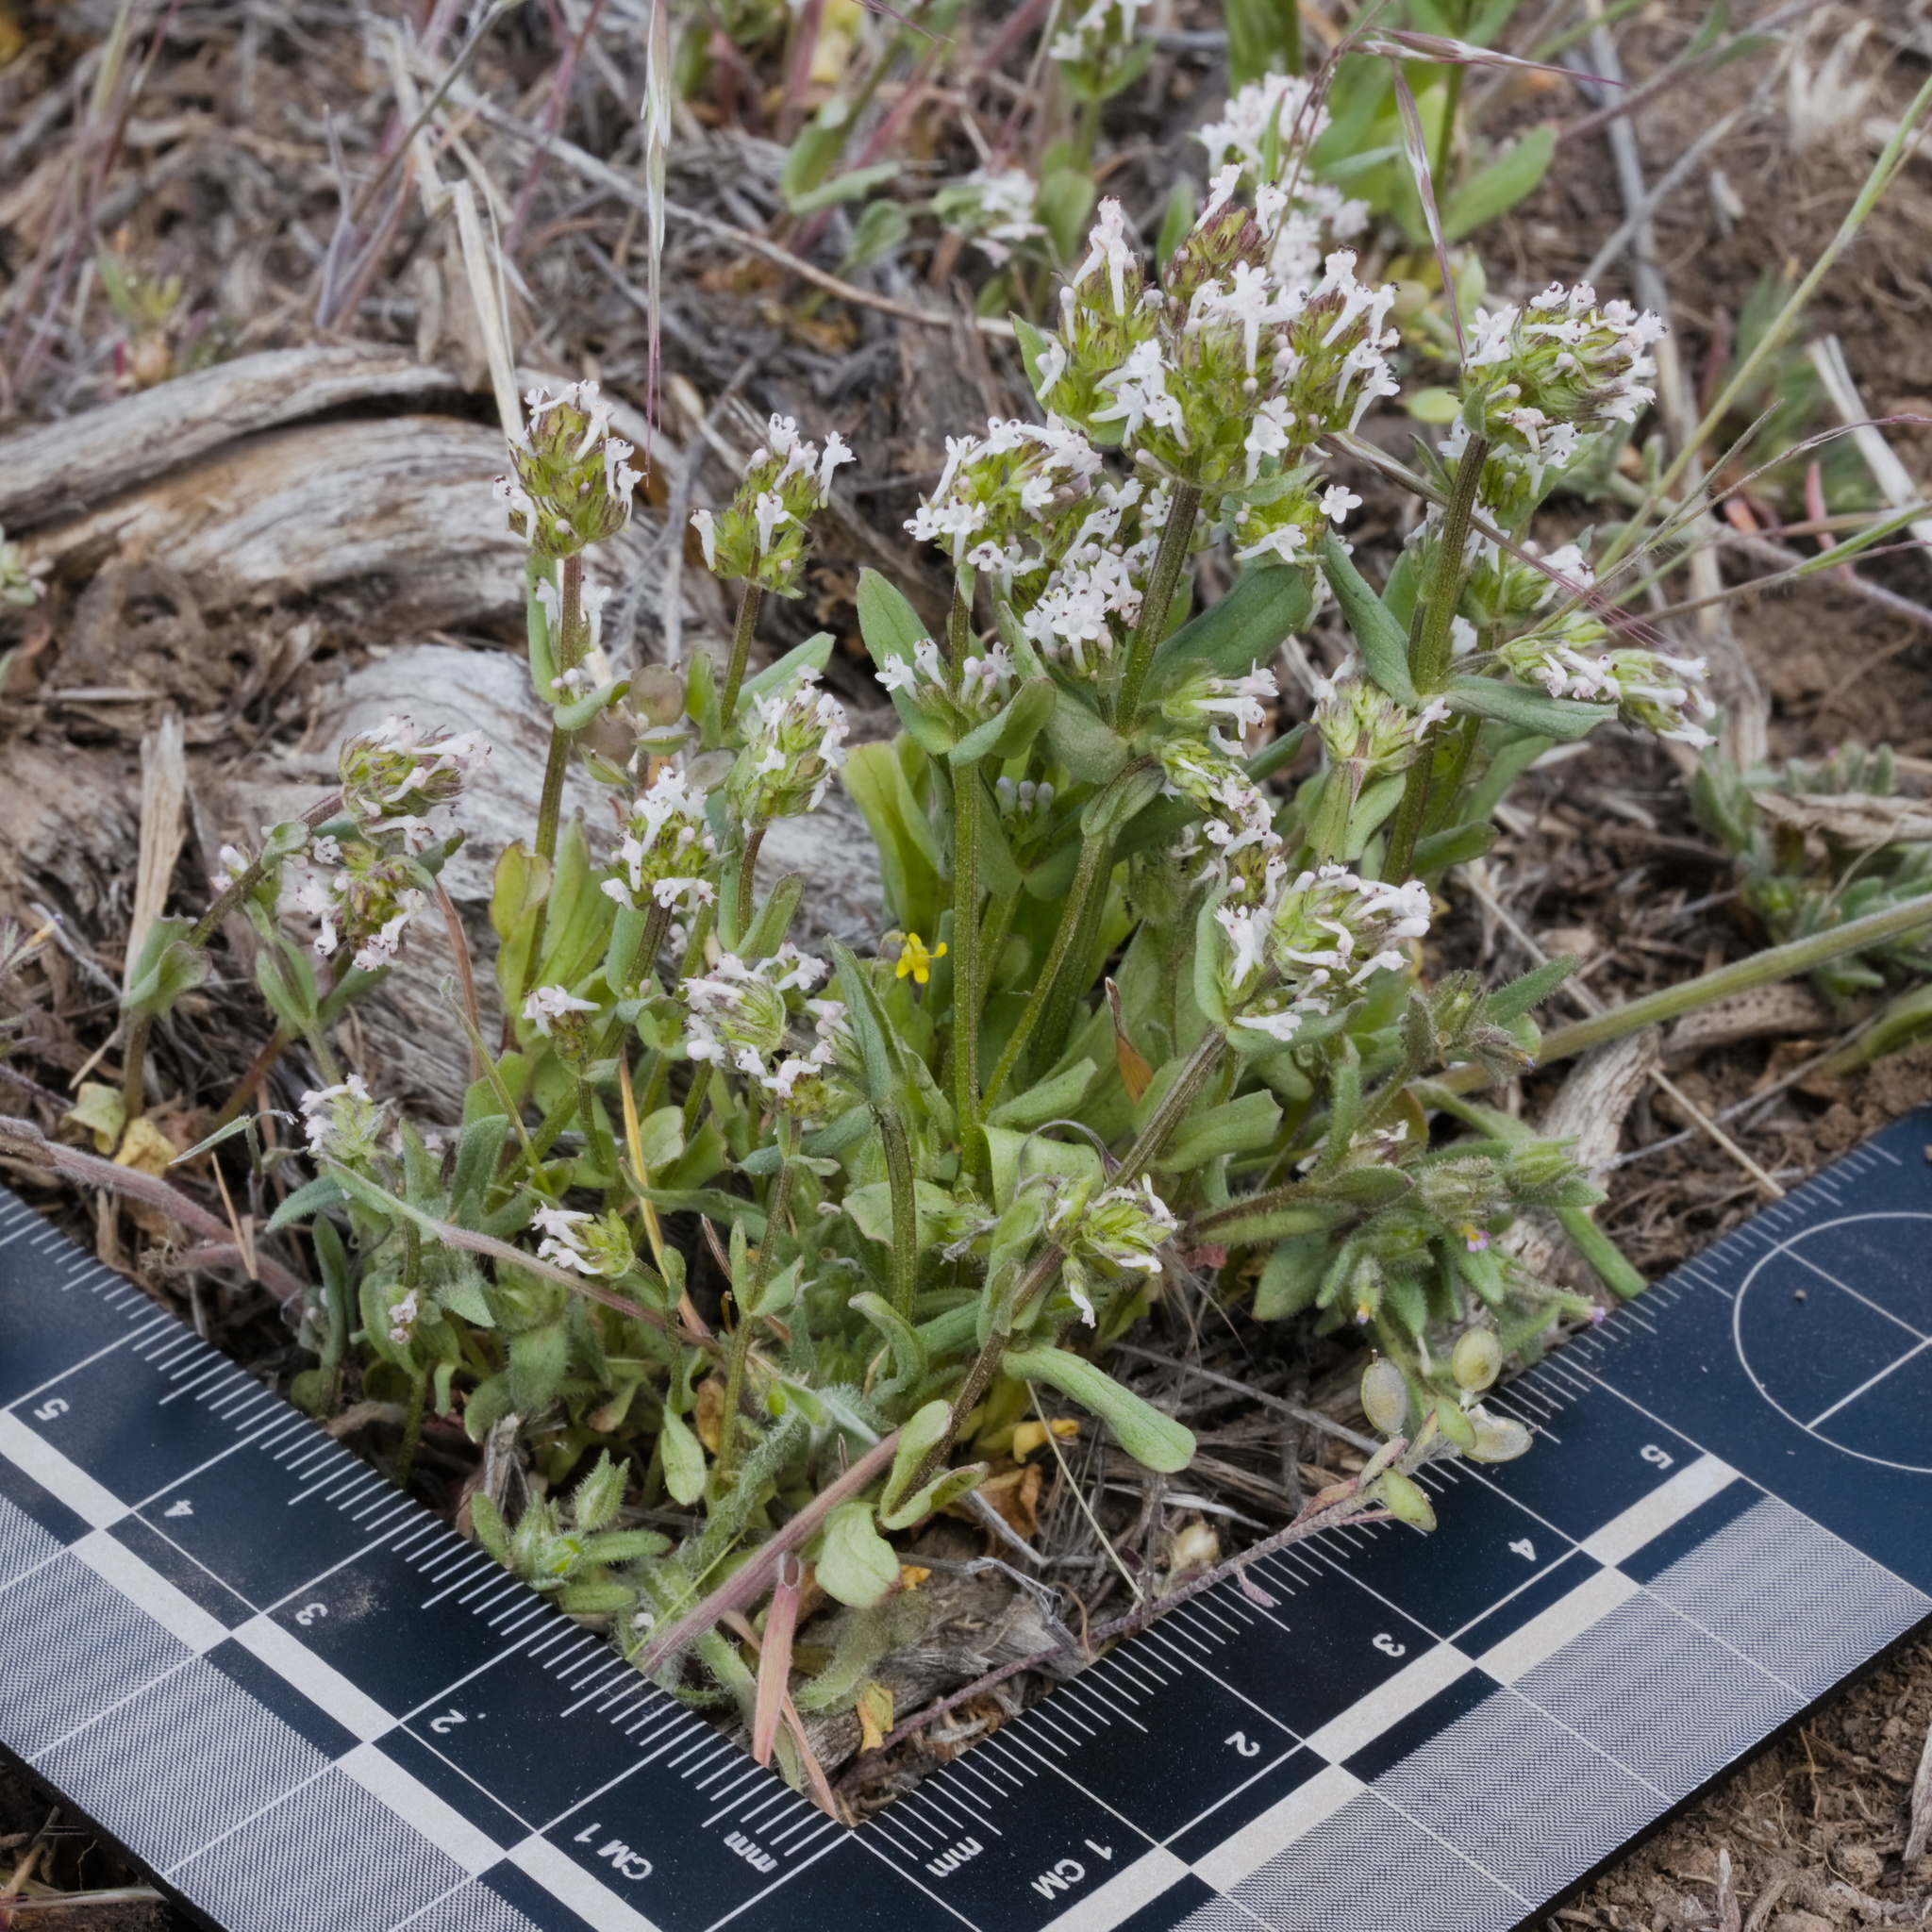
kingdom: Plantae
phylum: Tracheophyta
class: Magnoliopsida
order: Dipsacales
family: Caprifoliaceae
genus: Plectritis
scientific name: Plectritis macroptera
